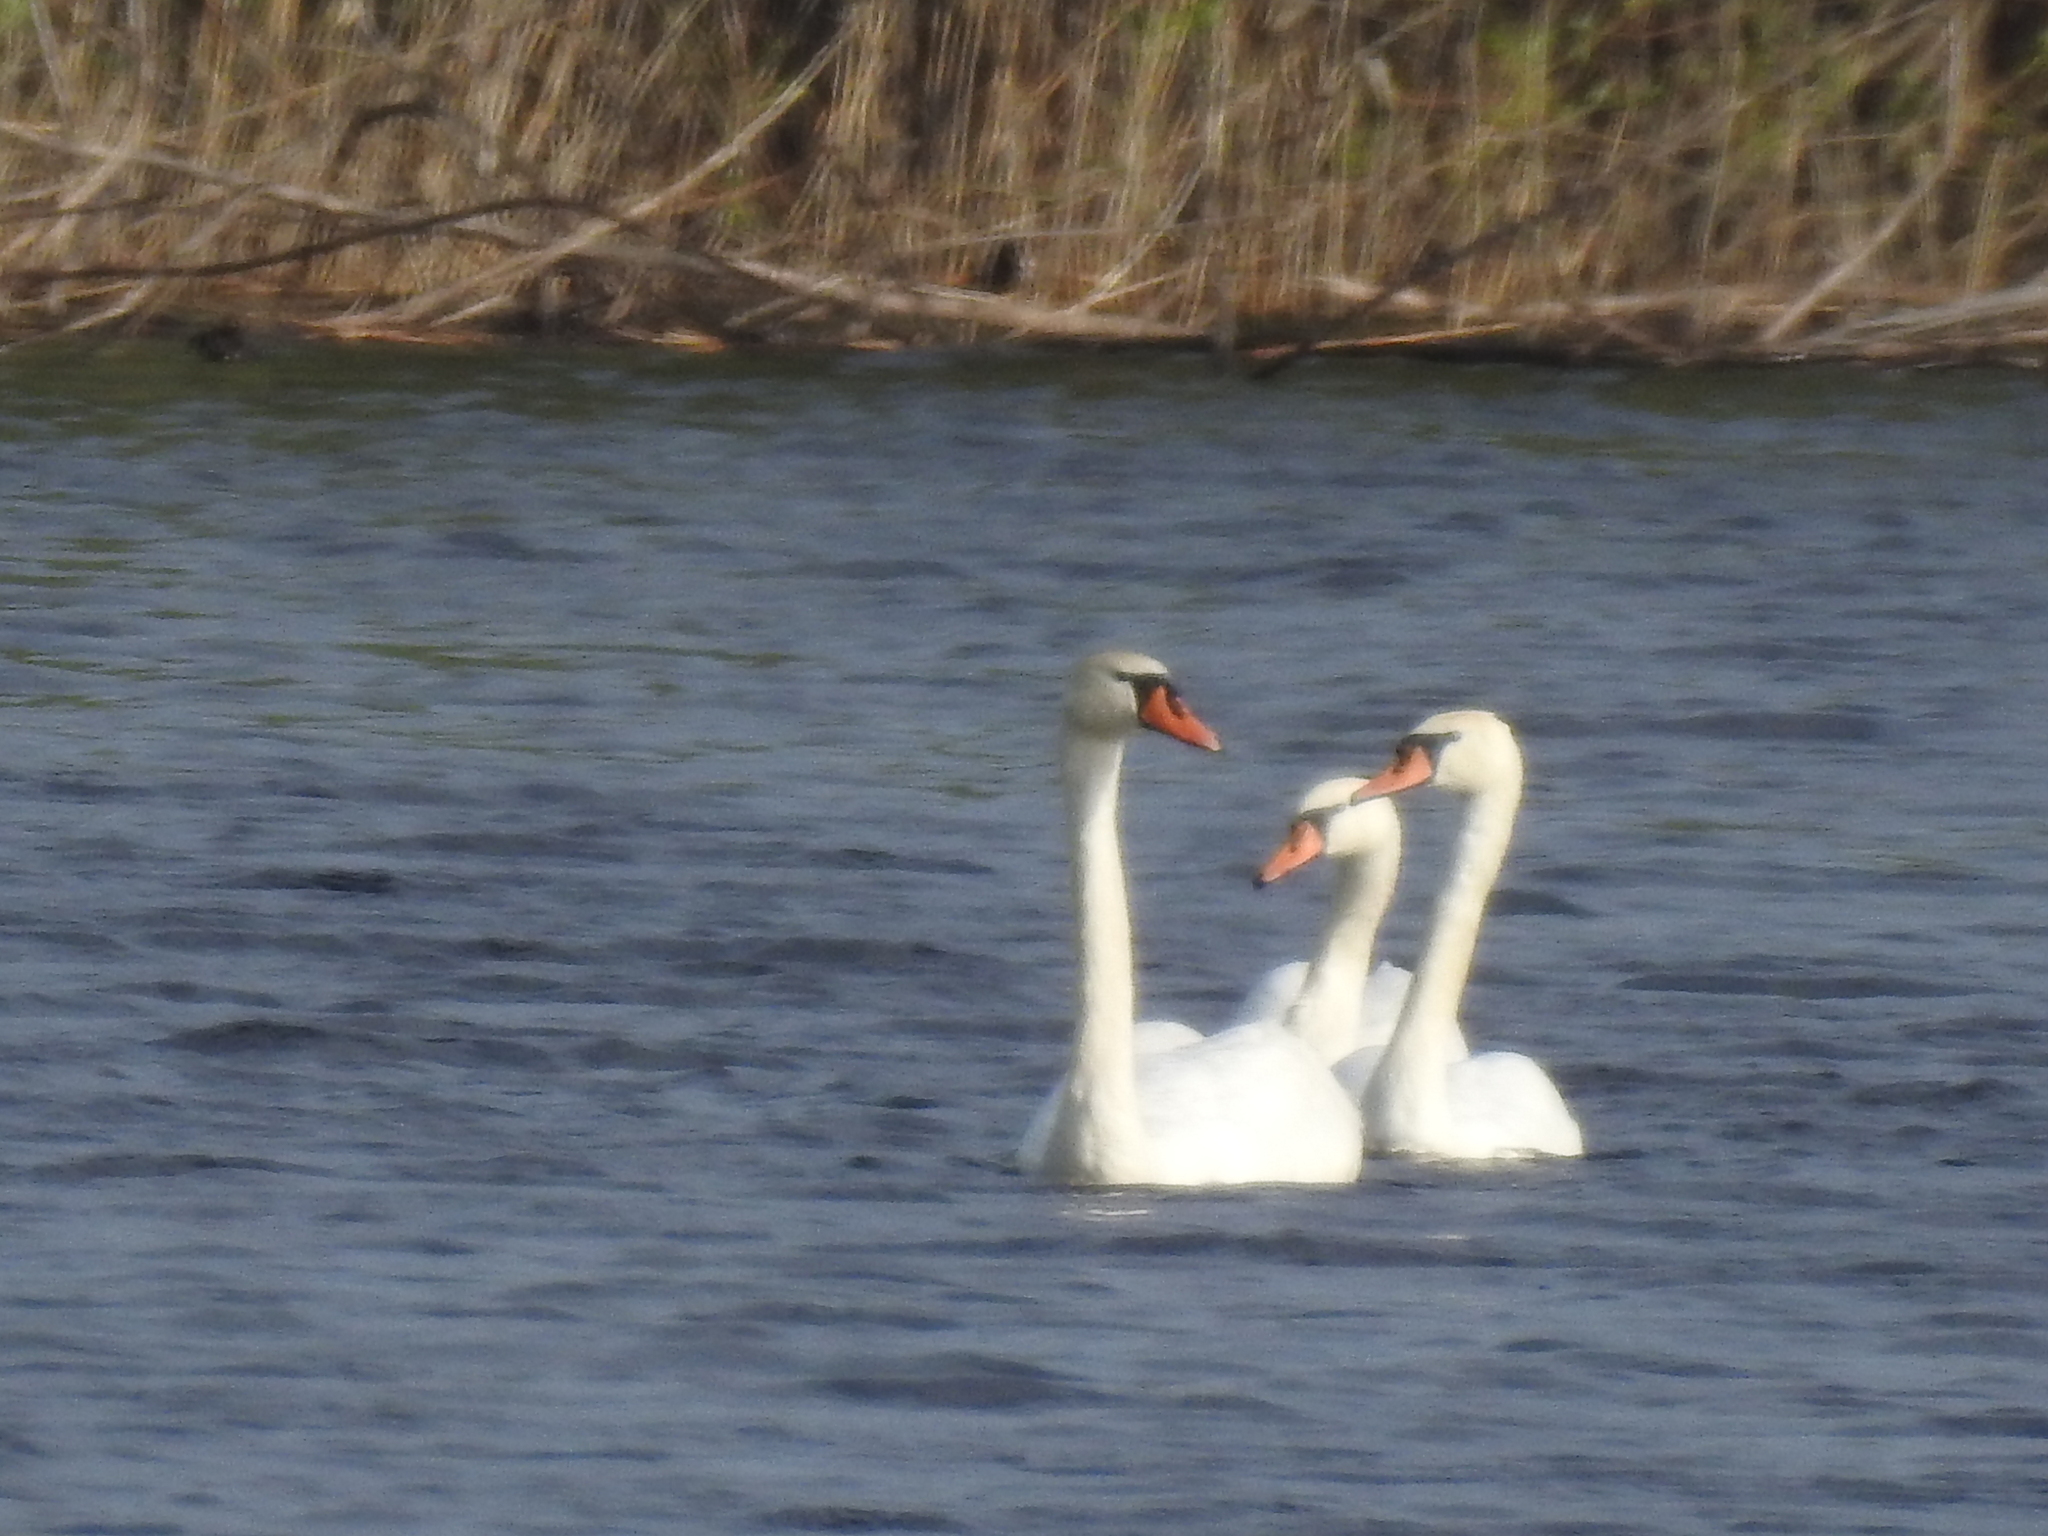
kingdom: Animalia
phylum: Chordata
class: Aves
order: Anseriformes
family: Anatidae
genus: Cygnus
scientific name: Cygnus olor
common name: Mute swan
